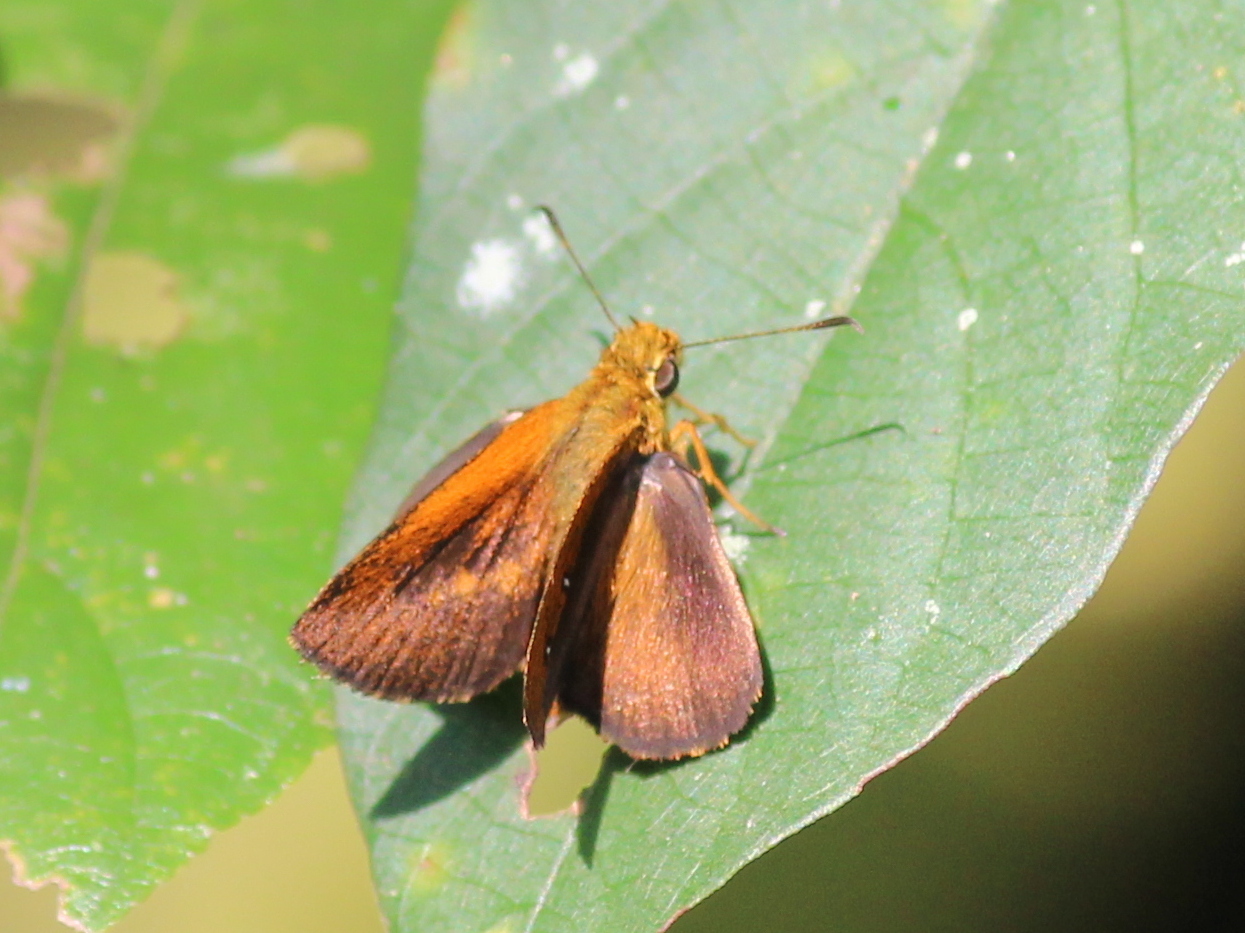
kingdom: Animalia
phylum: Arthropoda
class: Insecta
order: Lepidoptera
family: Hesperiidae
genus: Iambrix
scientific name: Iambrix salsala
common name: Chestnut bob
